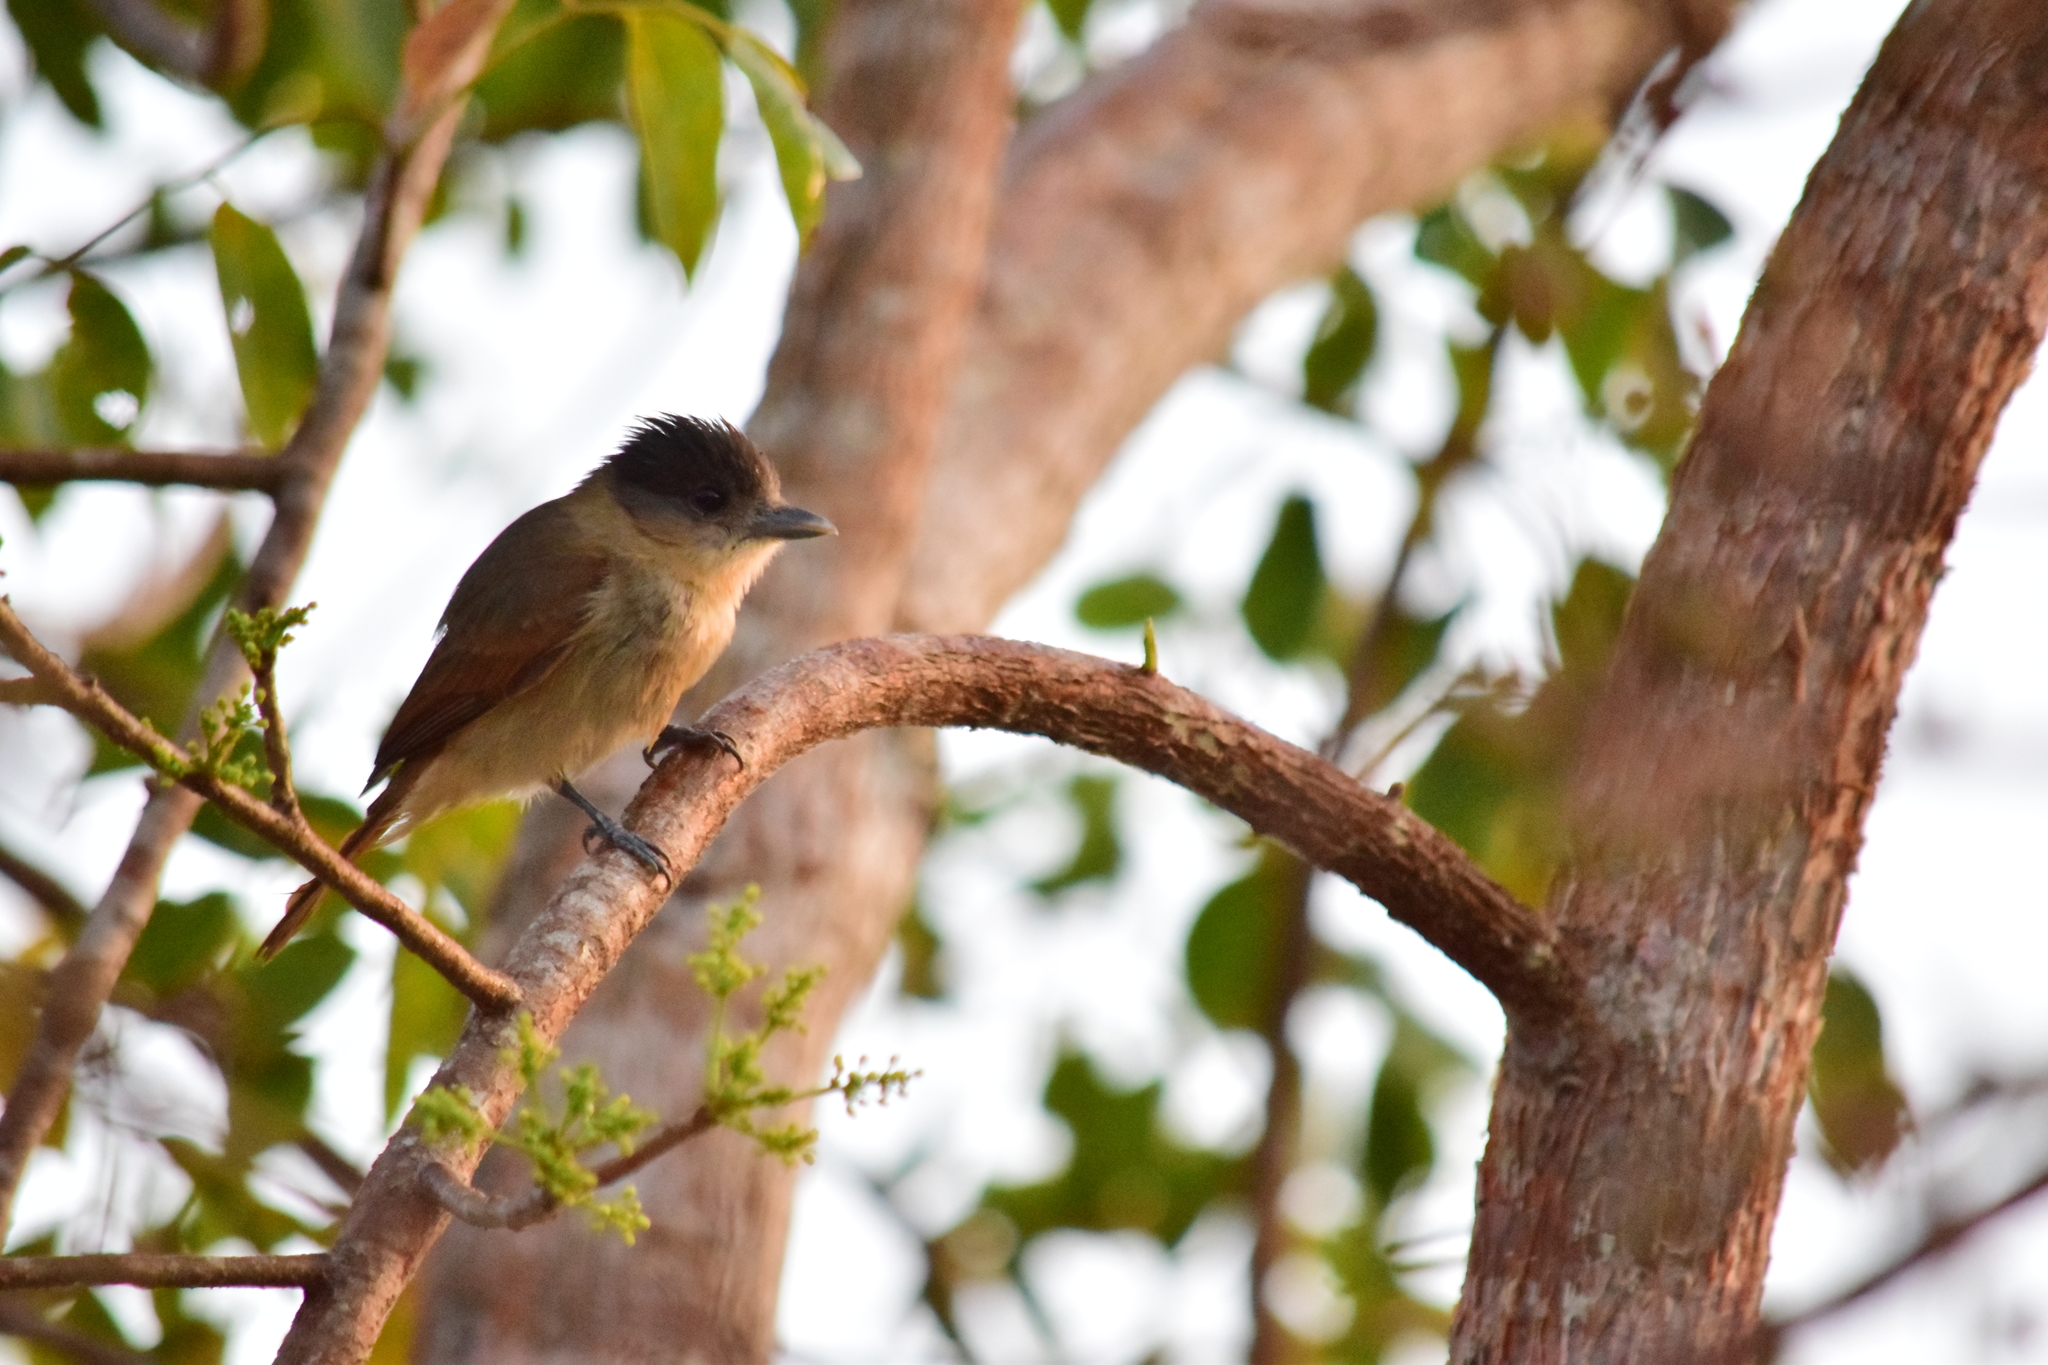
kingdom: Animalia
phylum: Chordata
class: Aves
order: Passeriformes
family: Cotingidae
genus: Pachyramphus
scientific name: Pachyramphus aglaiae
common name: Rose-throated becard
